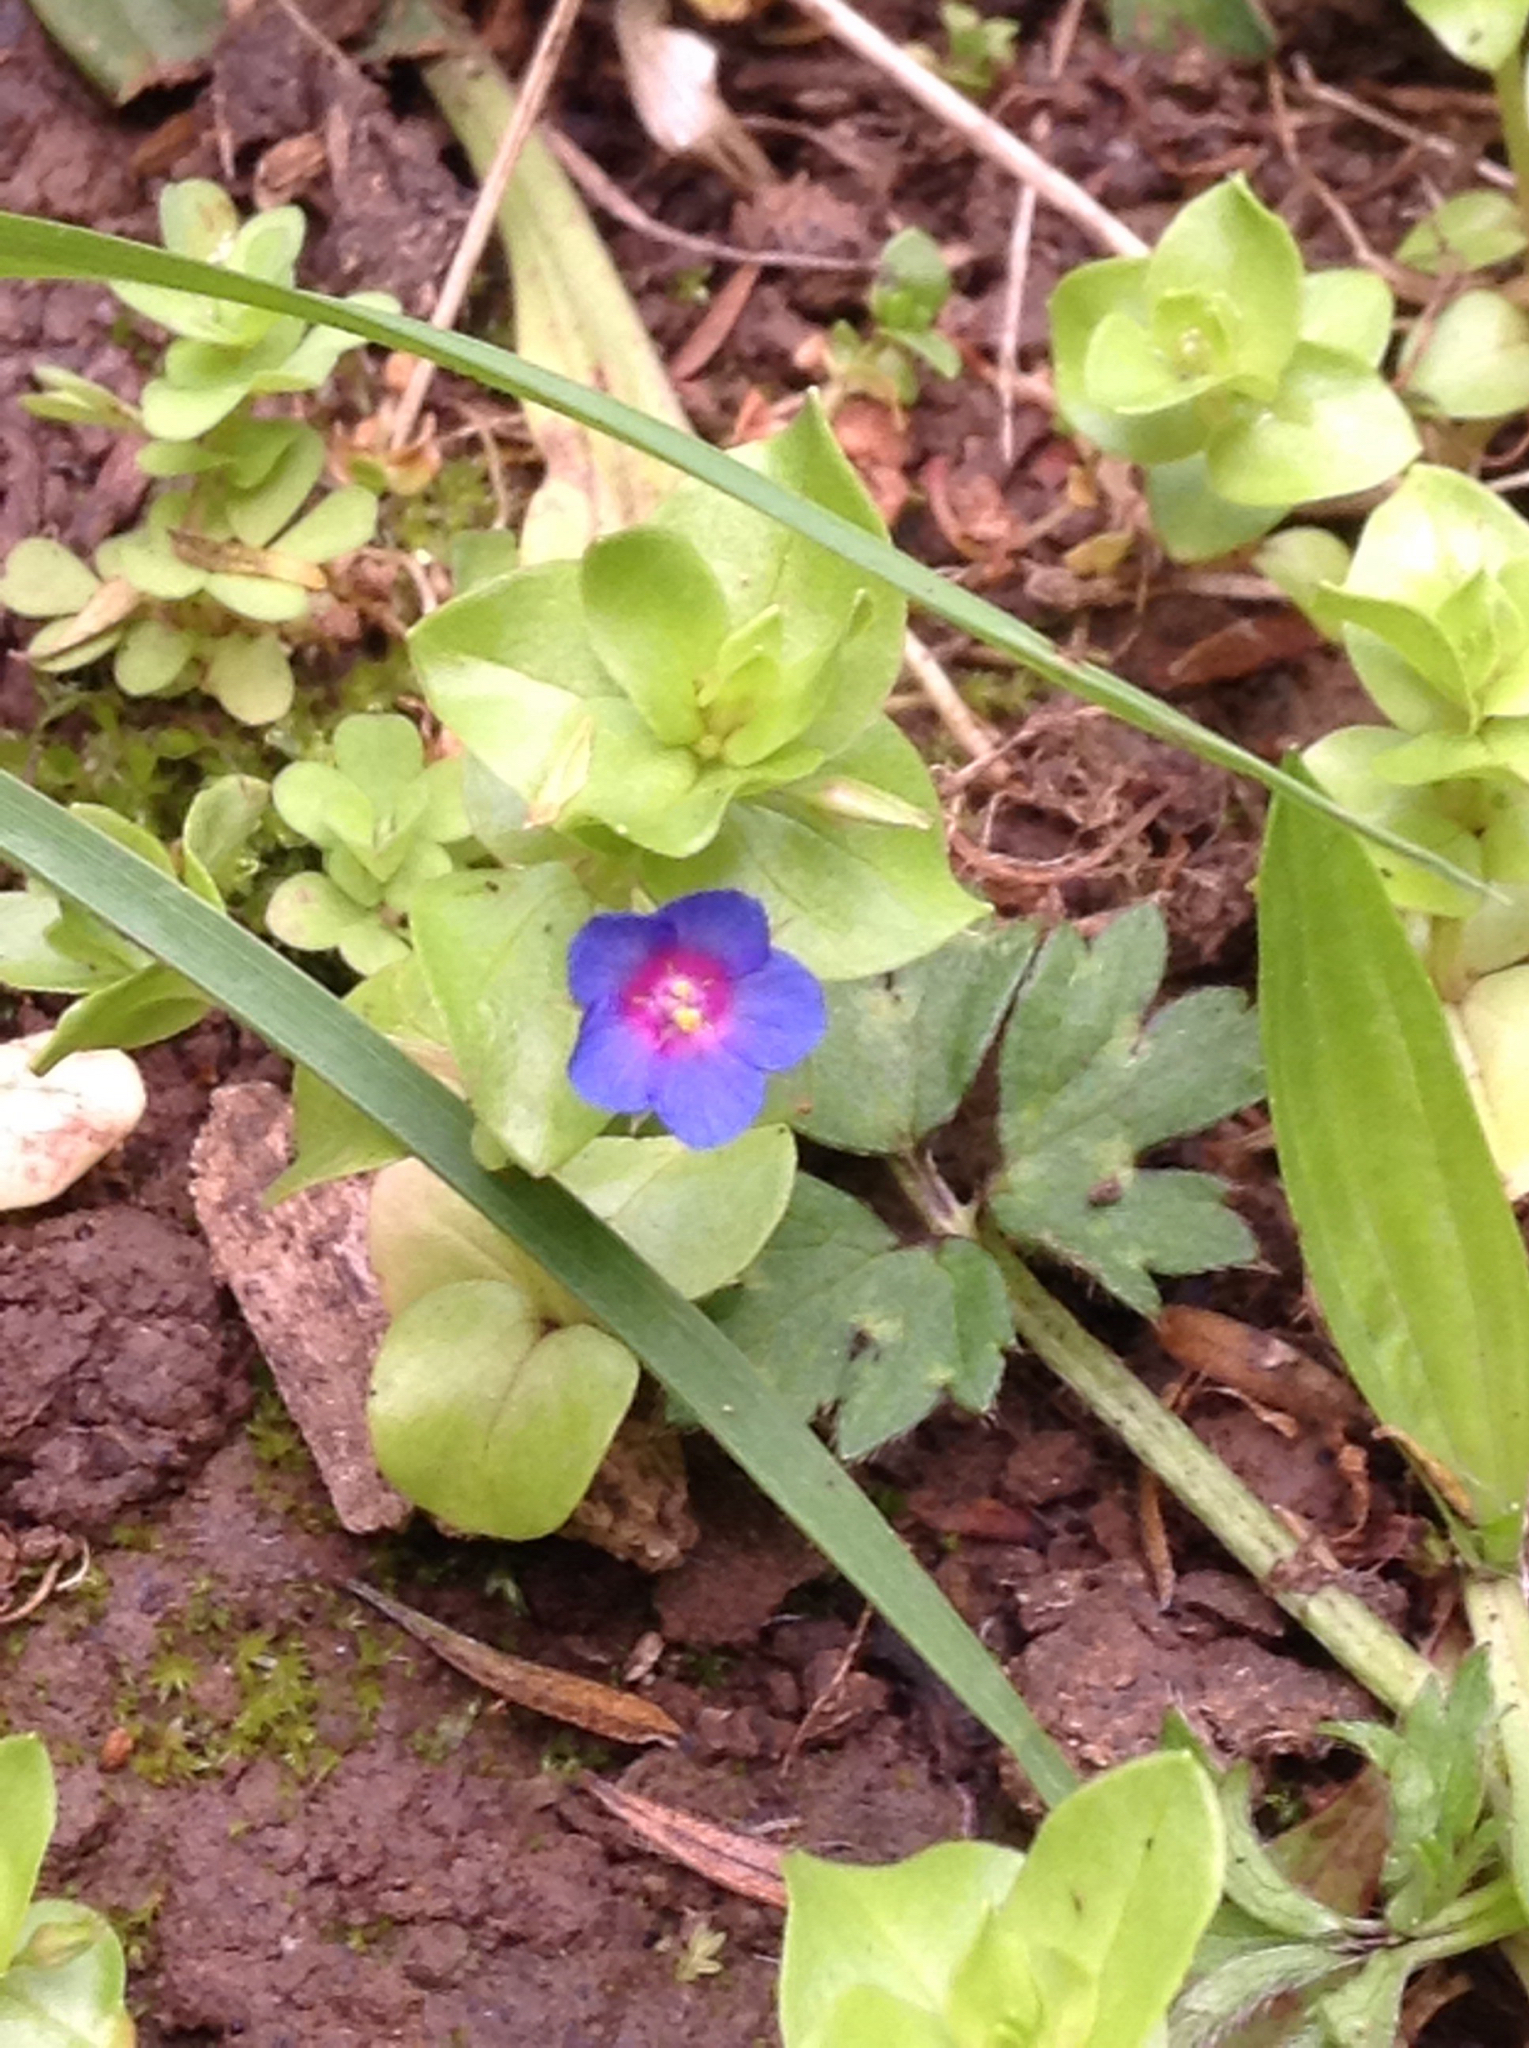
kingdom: Plantae
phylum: Tracheophyta
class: Magnoliopsida
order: Ericales
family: Primulaceae
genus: Lysimachia
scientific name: Lysimachia arvensis
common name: Scarlet pimpernel
